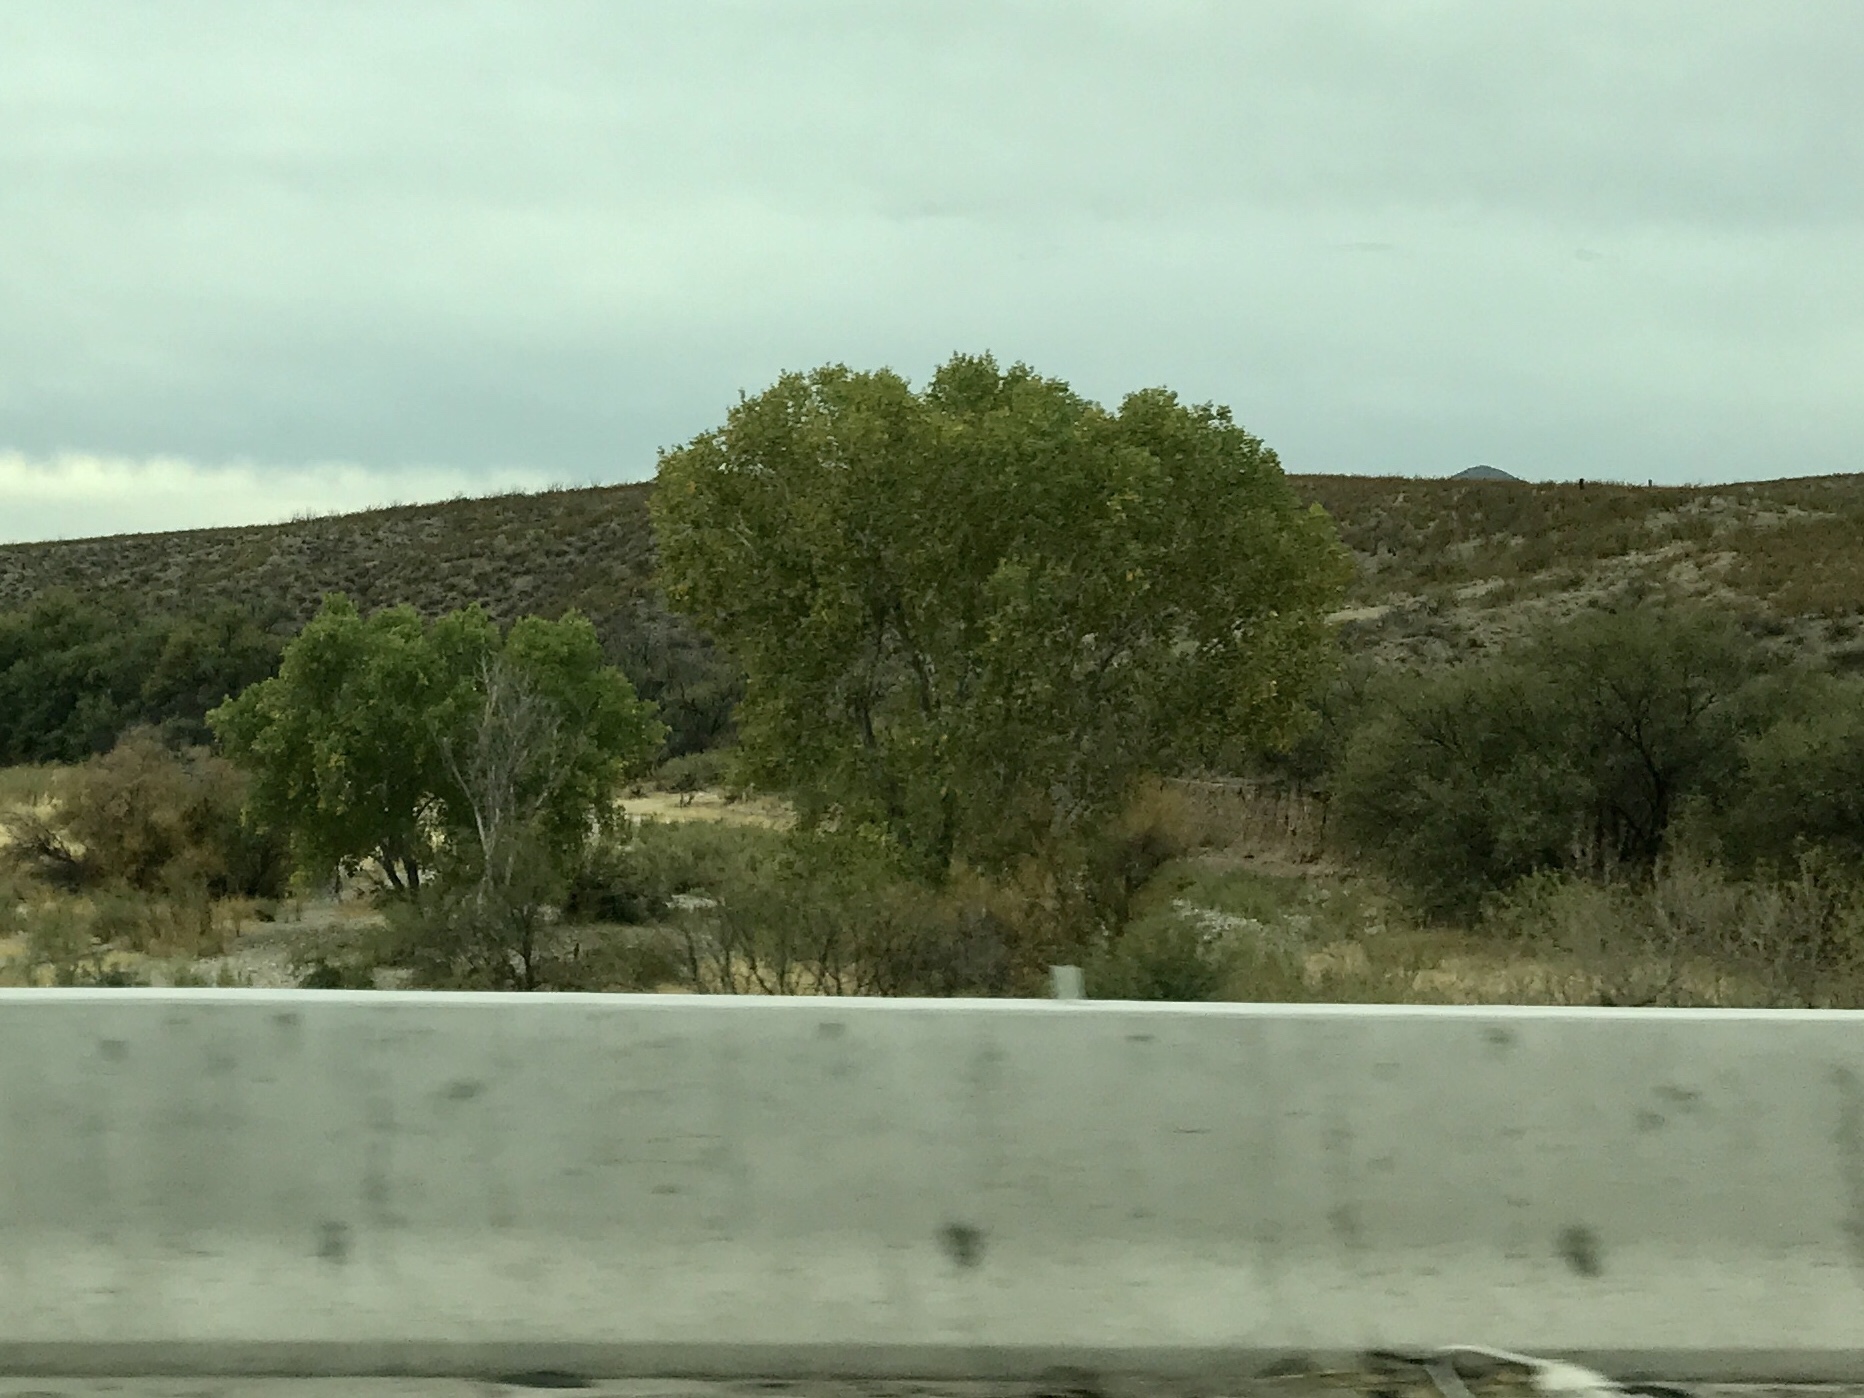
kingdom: Plantae
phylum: Tracheophyta
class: Magnoliopsida
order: Malpighiales
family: Salicaceae
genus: Populus
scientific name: Populus fremontii
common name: Fremont's cottonwood
